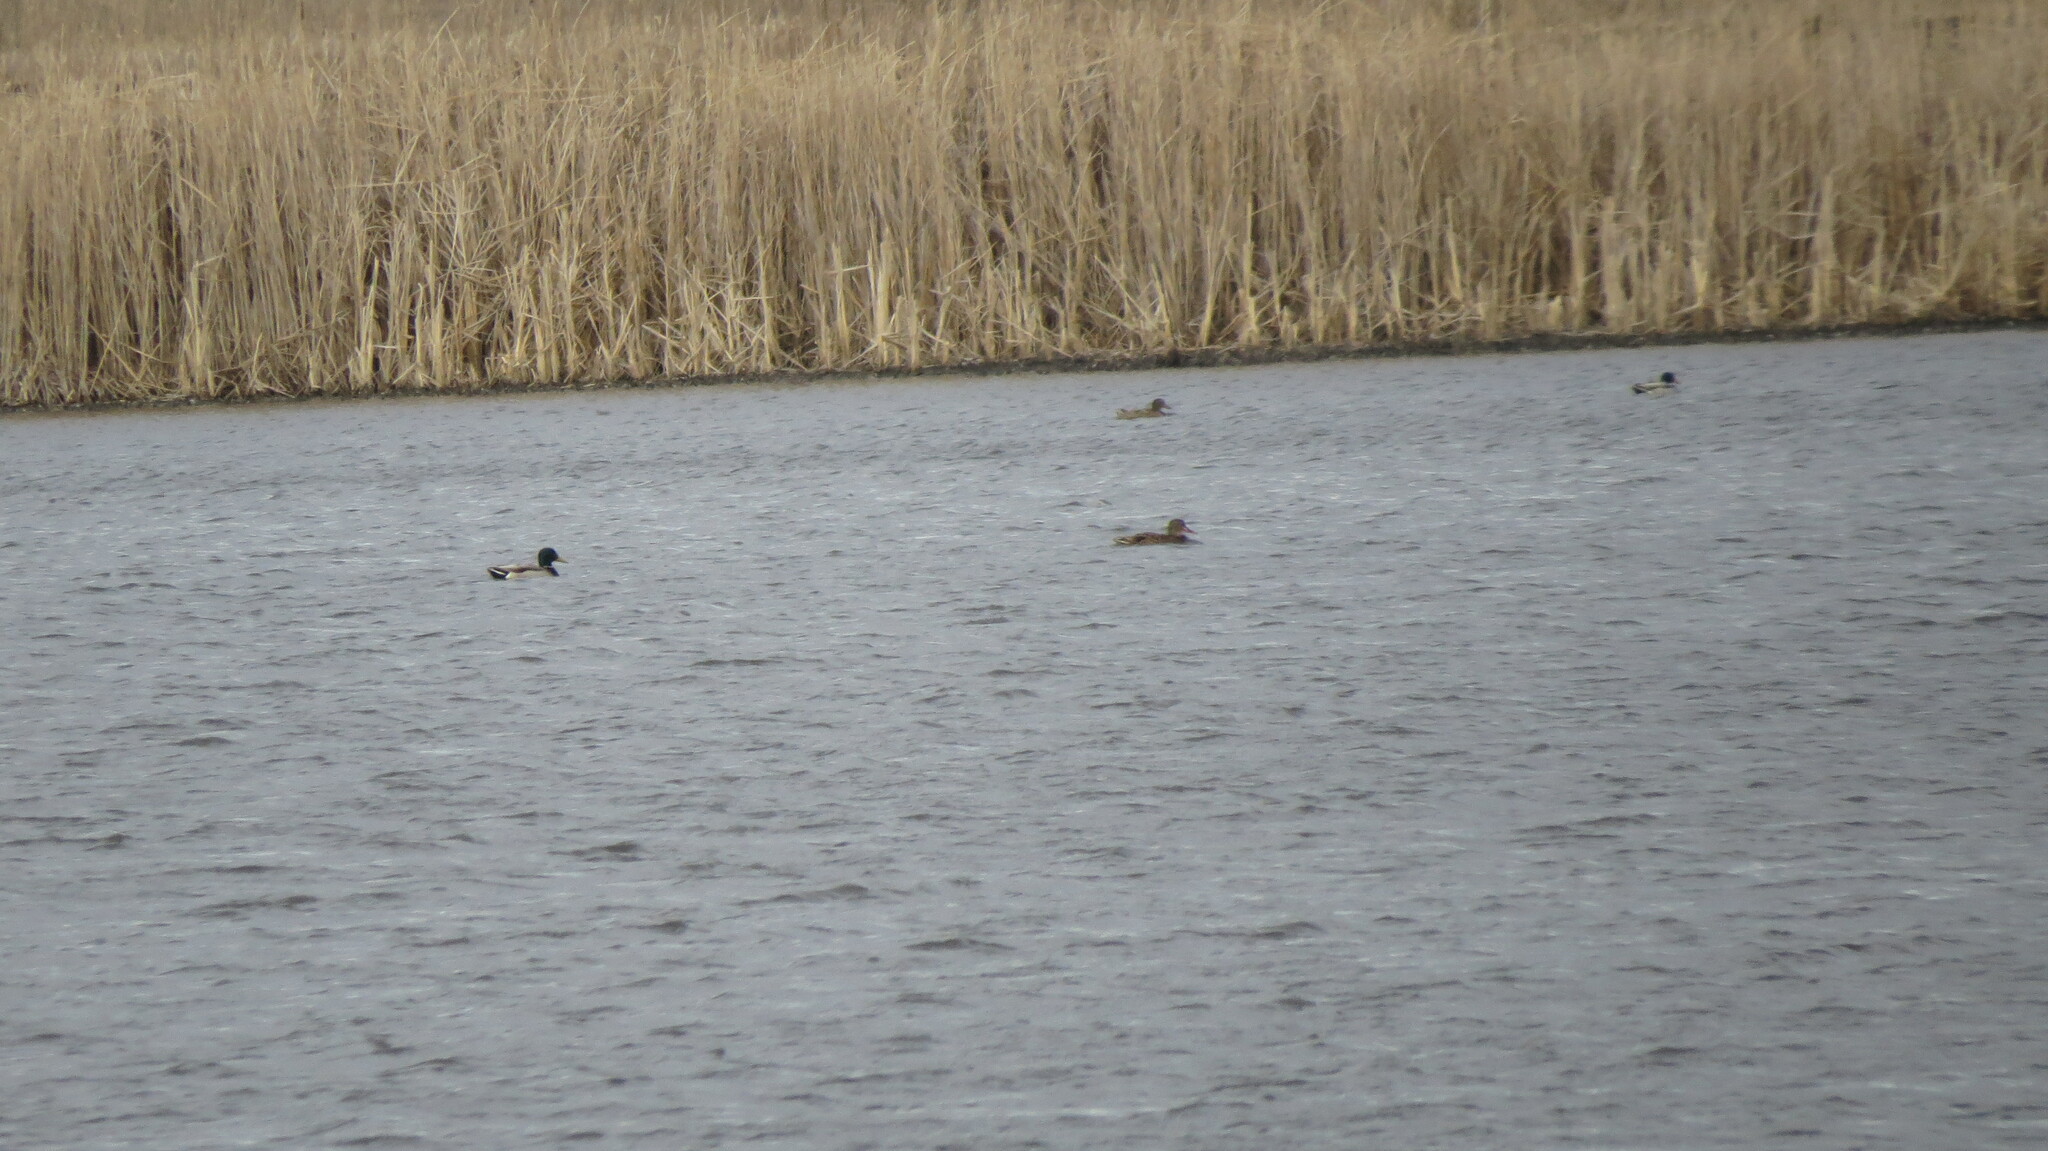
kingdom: Animalia
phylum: Chordata
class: Aves
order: Anseriformes
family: Anatidae
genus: Anas
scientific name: Anas platyrhynchos
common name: Mallard
